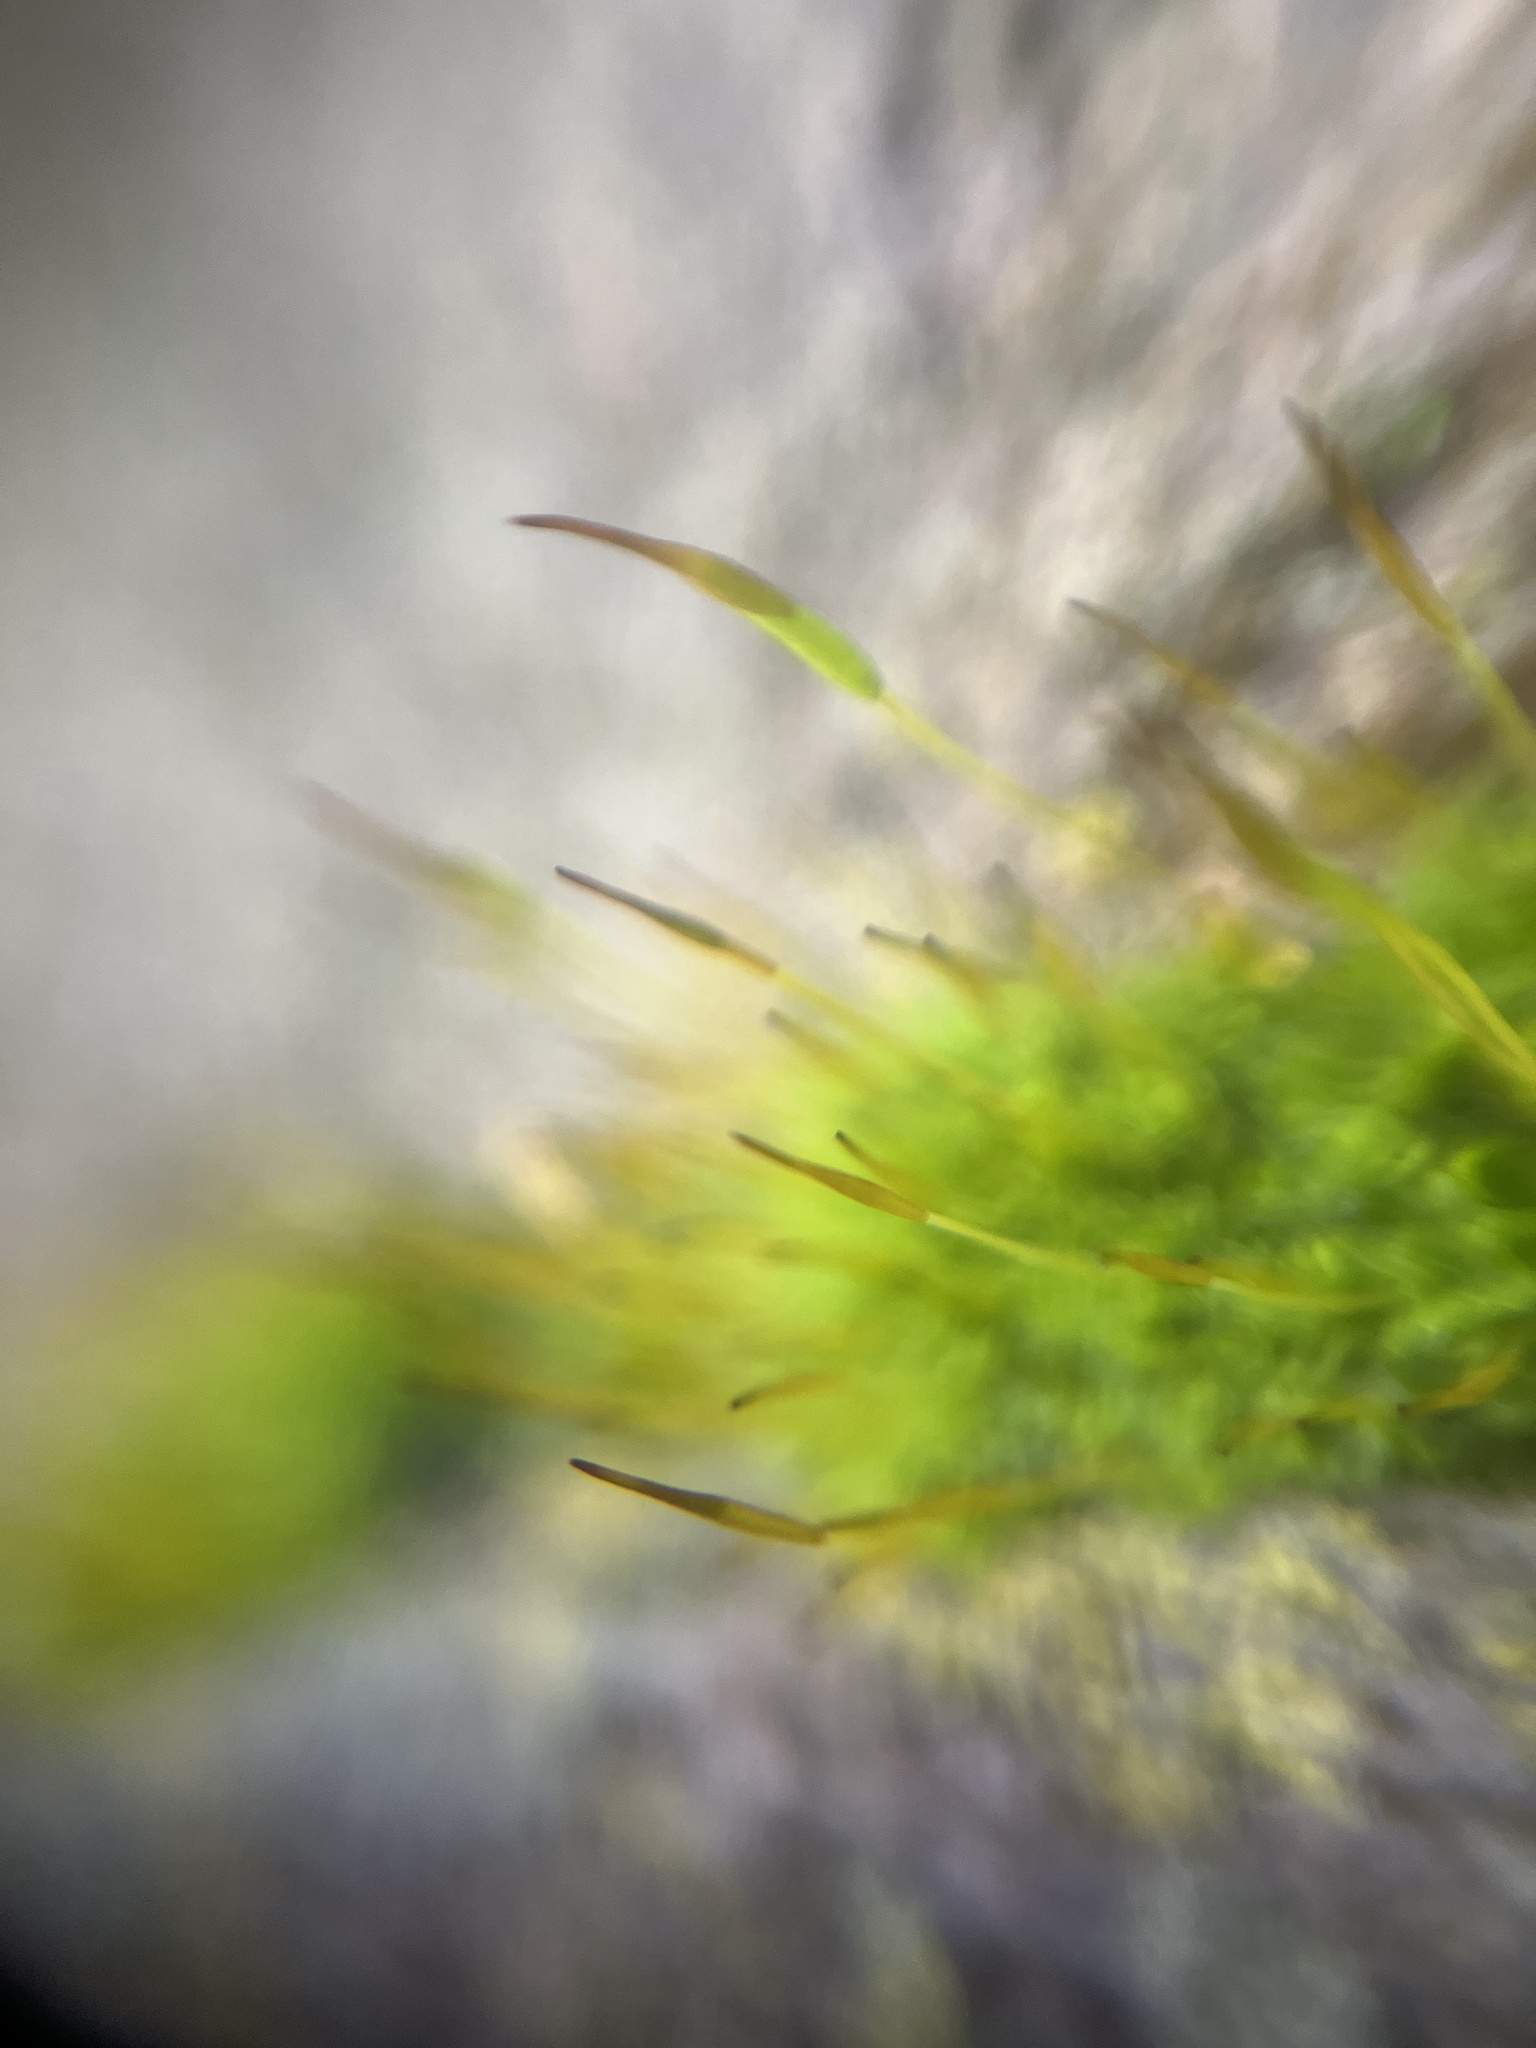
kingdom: Plantae
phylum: Bryophyta
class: Bryopsida
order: Pottiales
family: Pottiaceae
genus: Tortula
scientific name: Tortula muralis
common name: Wall screw-moss
